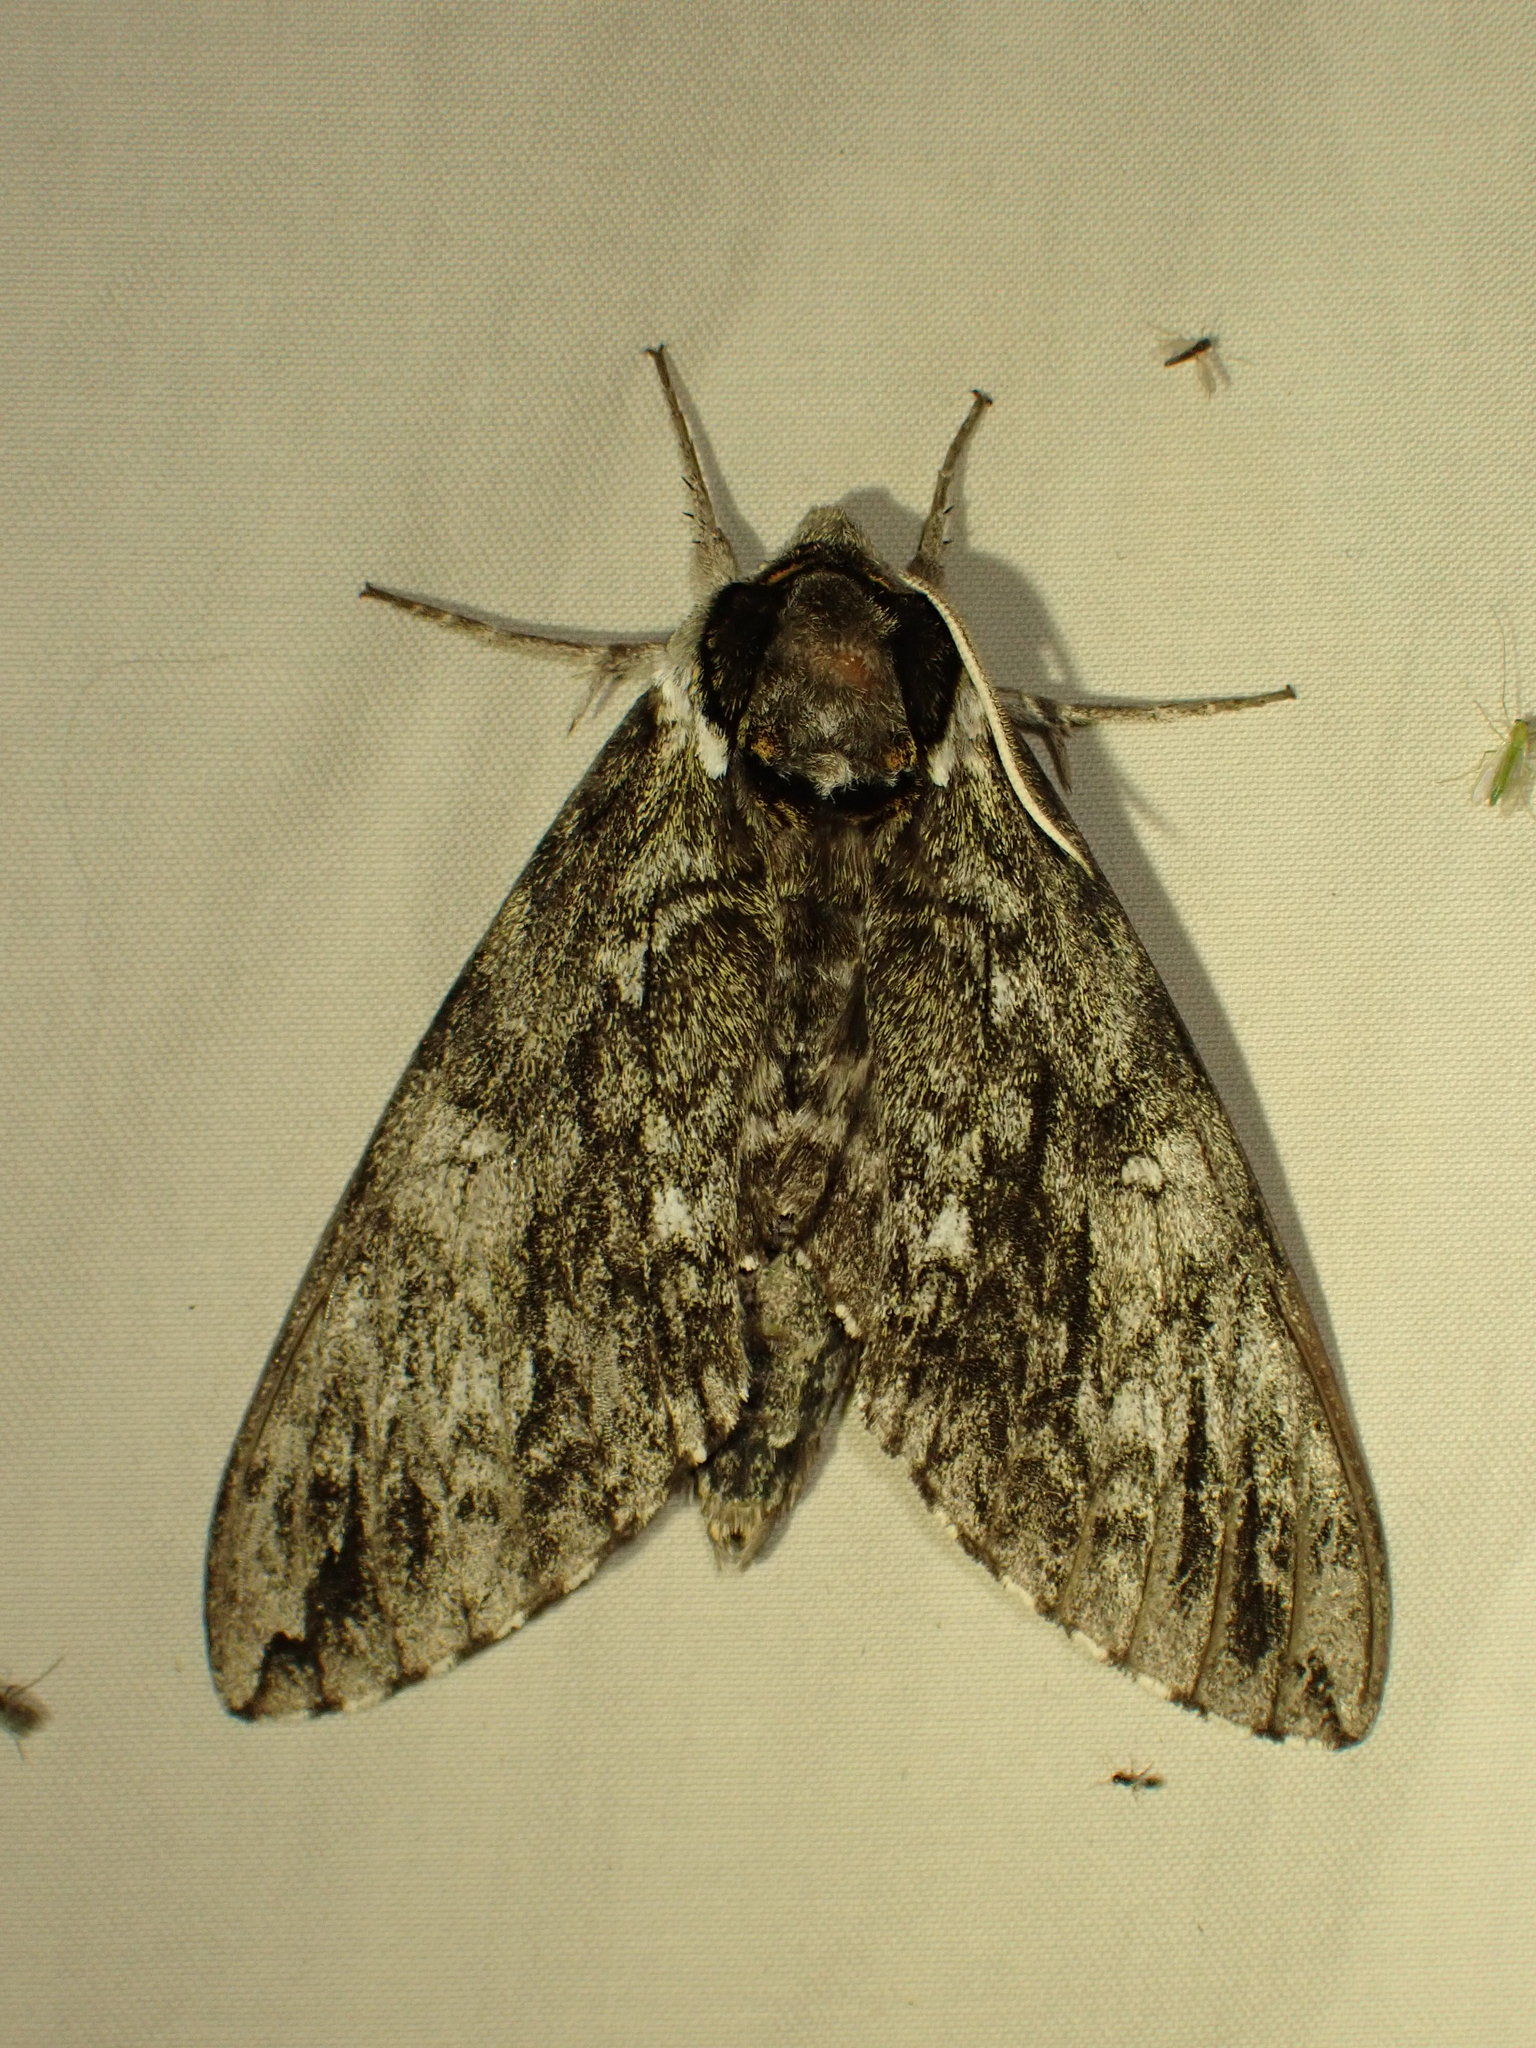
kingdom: Animalia
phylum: Arthropoda
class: Insecta
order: Lepidoptera
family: Sphingidae
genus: Ceratomia
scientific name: Ceratomia undulosa
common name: Waved sphinx
